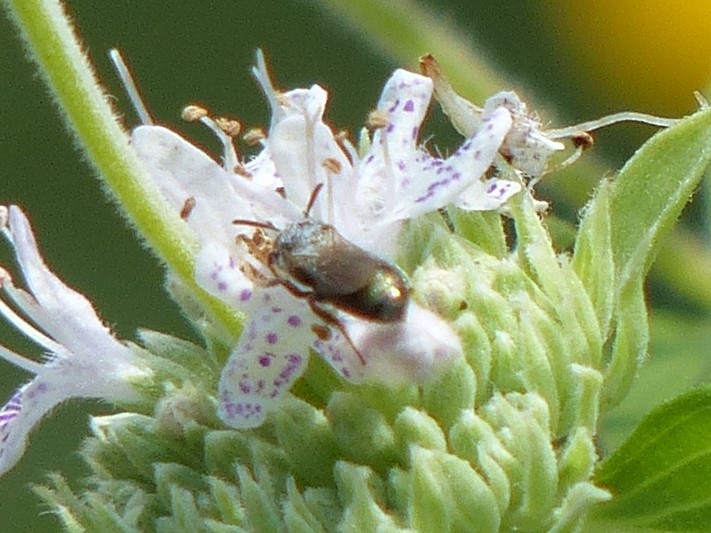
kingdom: Animalia
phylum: Arthropoda
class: Insecta
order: Hymenoptera
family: Apidae
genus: Ceratina
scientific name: Ceratina
